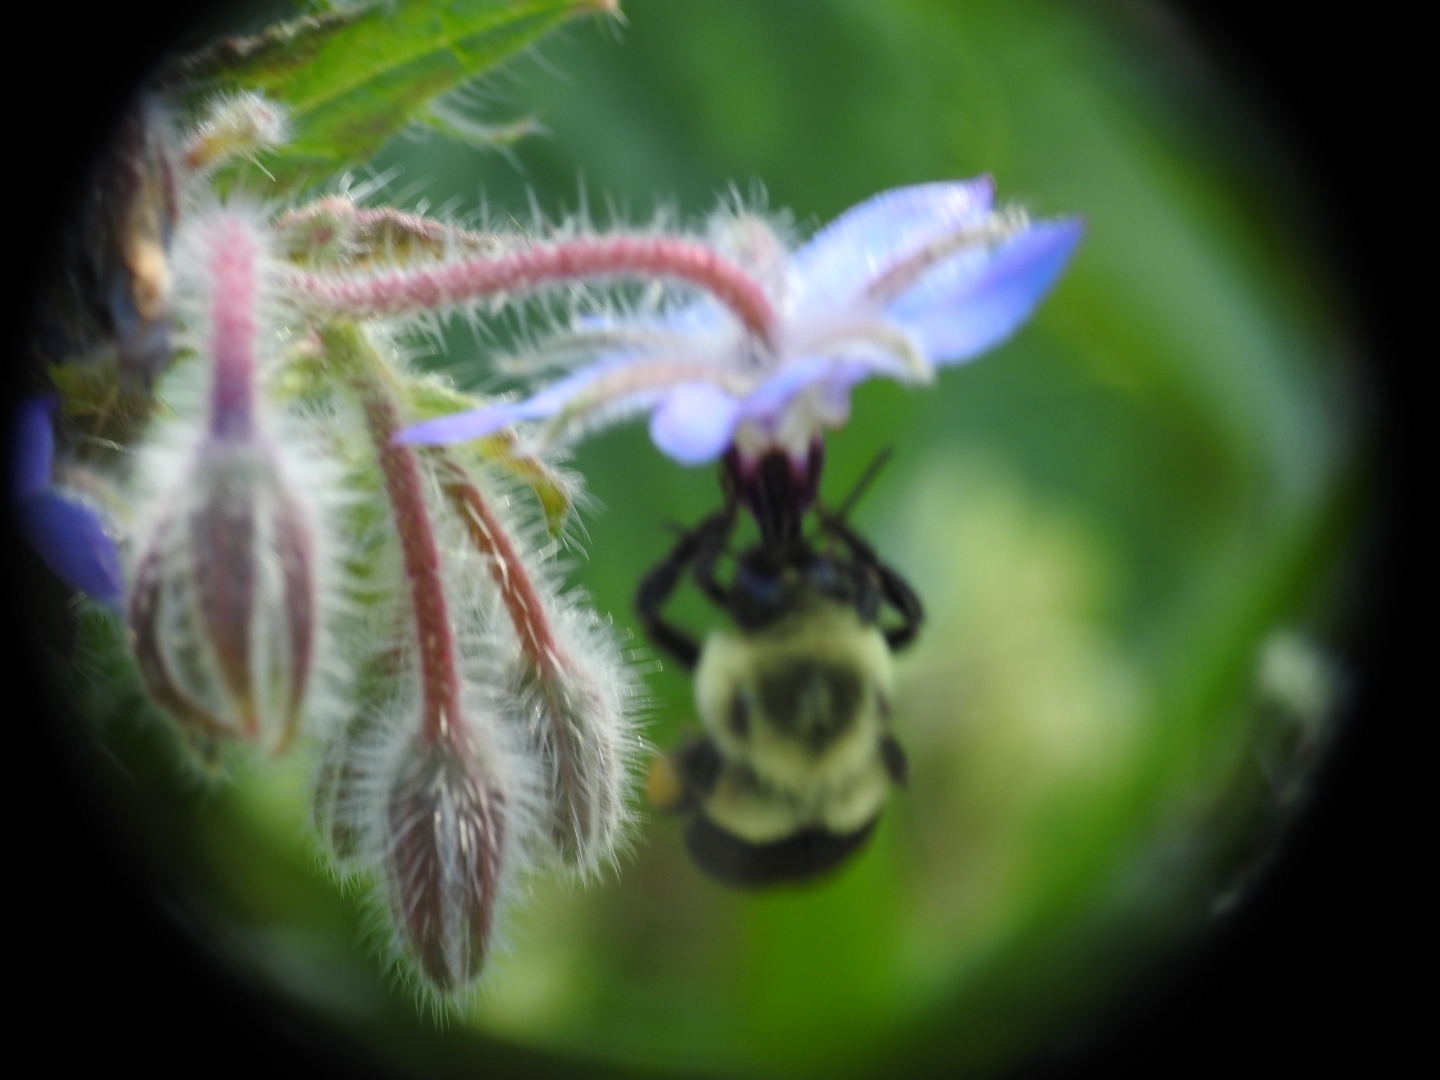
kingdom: Animalia
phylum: Arthropoda
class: Insecta
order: Hymenoptera
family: Apidae
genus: Bombus
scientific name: Bombus impatiens
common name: Common eastern bumble bee
